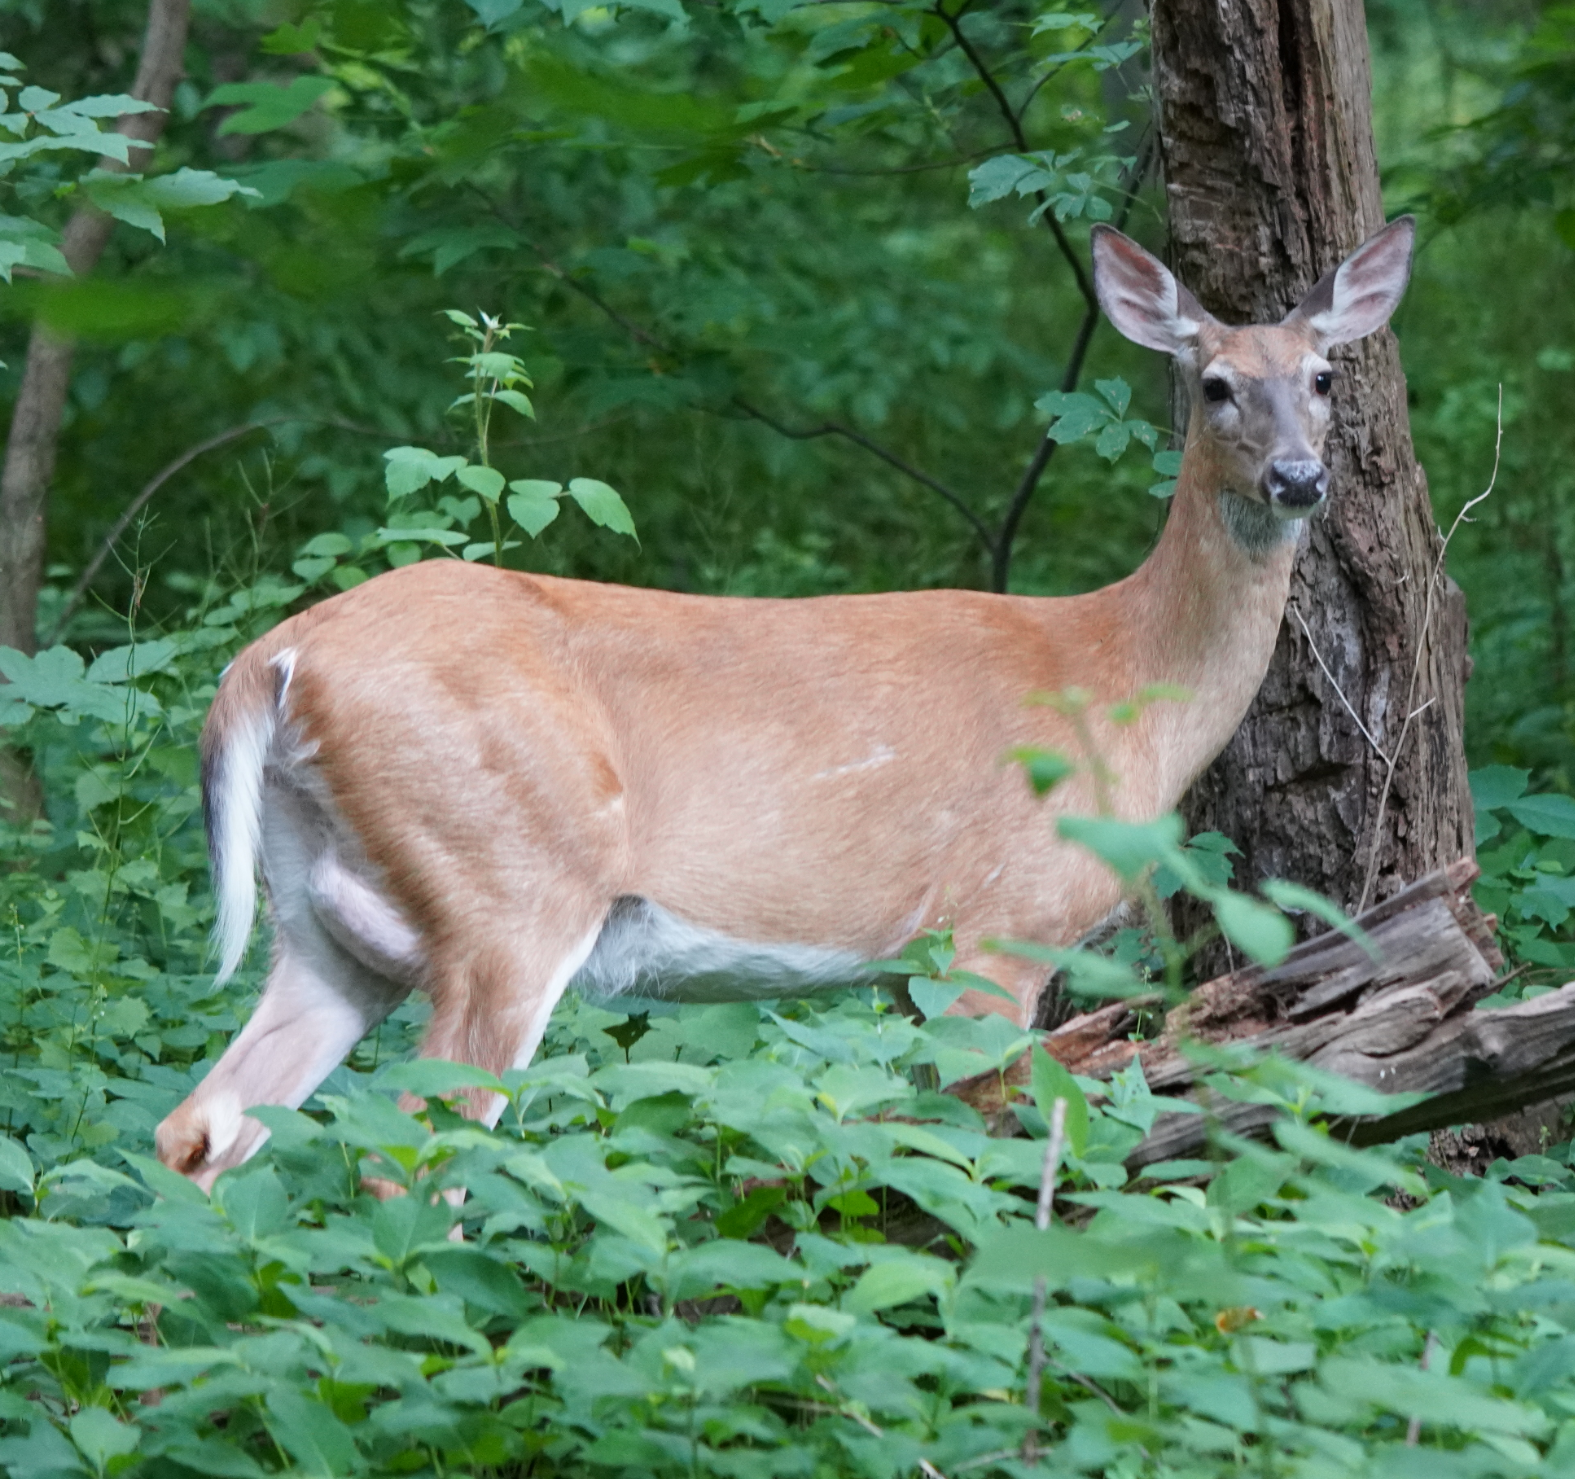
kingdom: Animalia
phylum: Chordata
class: Mammalia
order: Artiodactyla
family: Cervidae
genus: Odocoileus
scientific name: Odocoileus virginianus
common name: White-tailed deer
